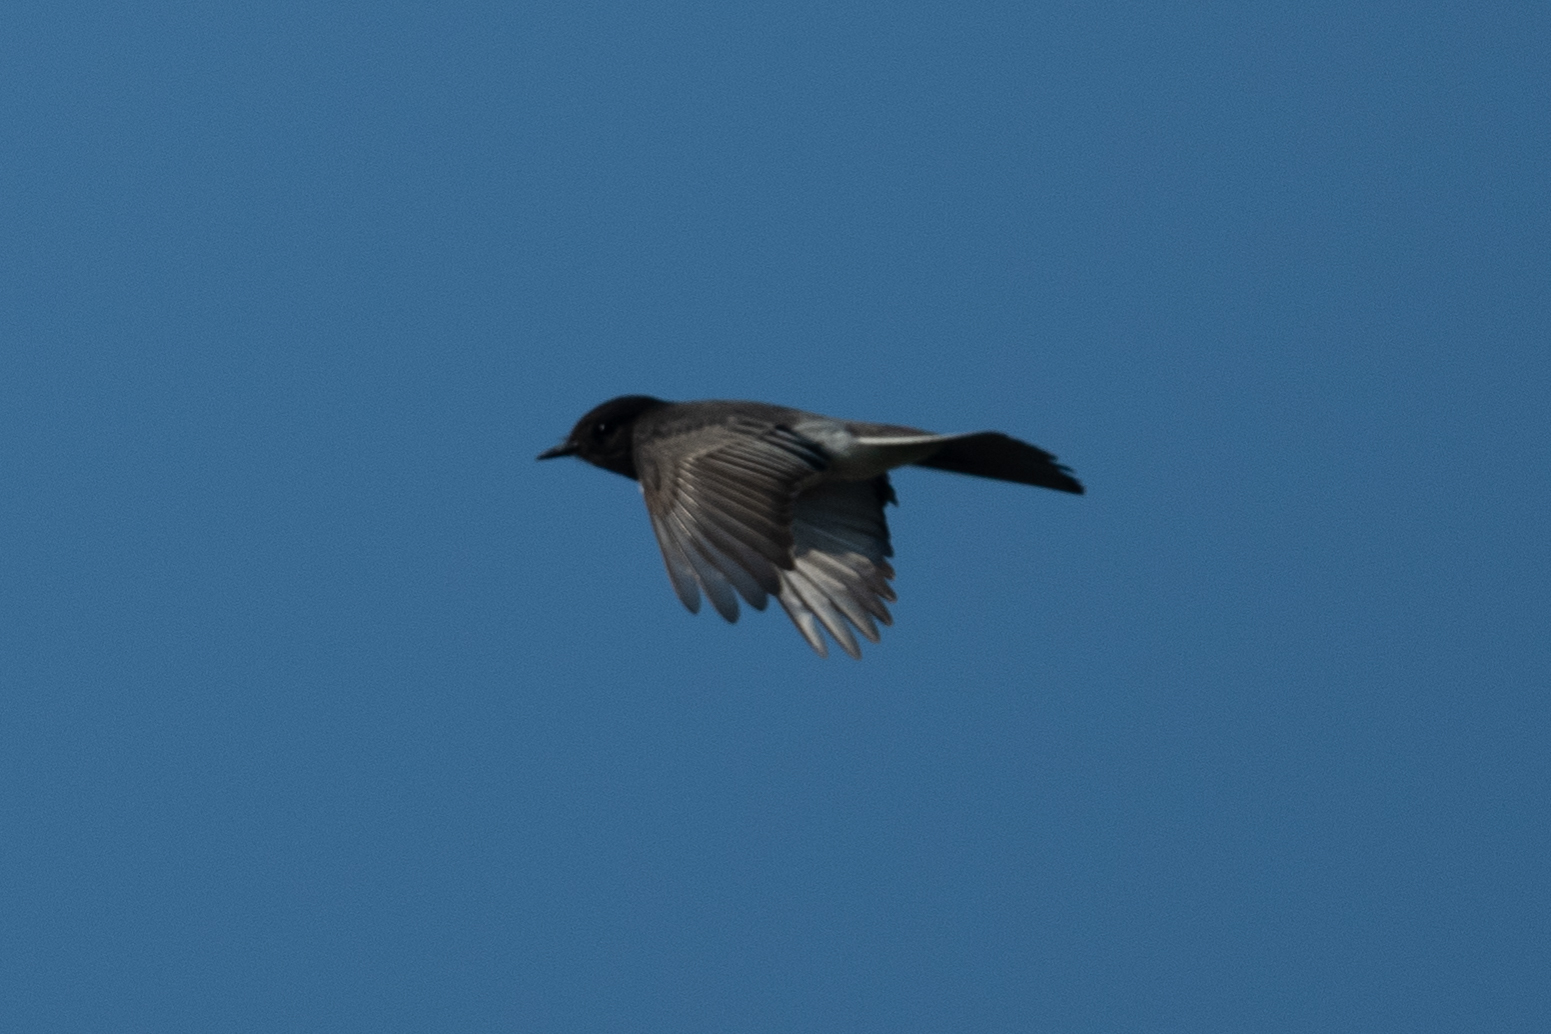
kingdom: Animalia
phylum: Chordata
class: Aves
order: Passeriformes
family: Tyrannidae
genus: Sayornis
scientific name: Sayornis nigricans
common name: Black phoebe
